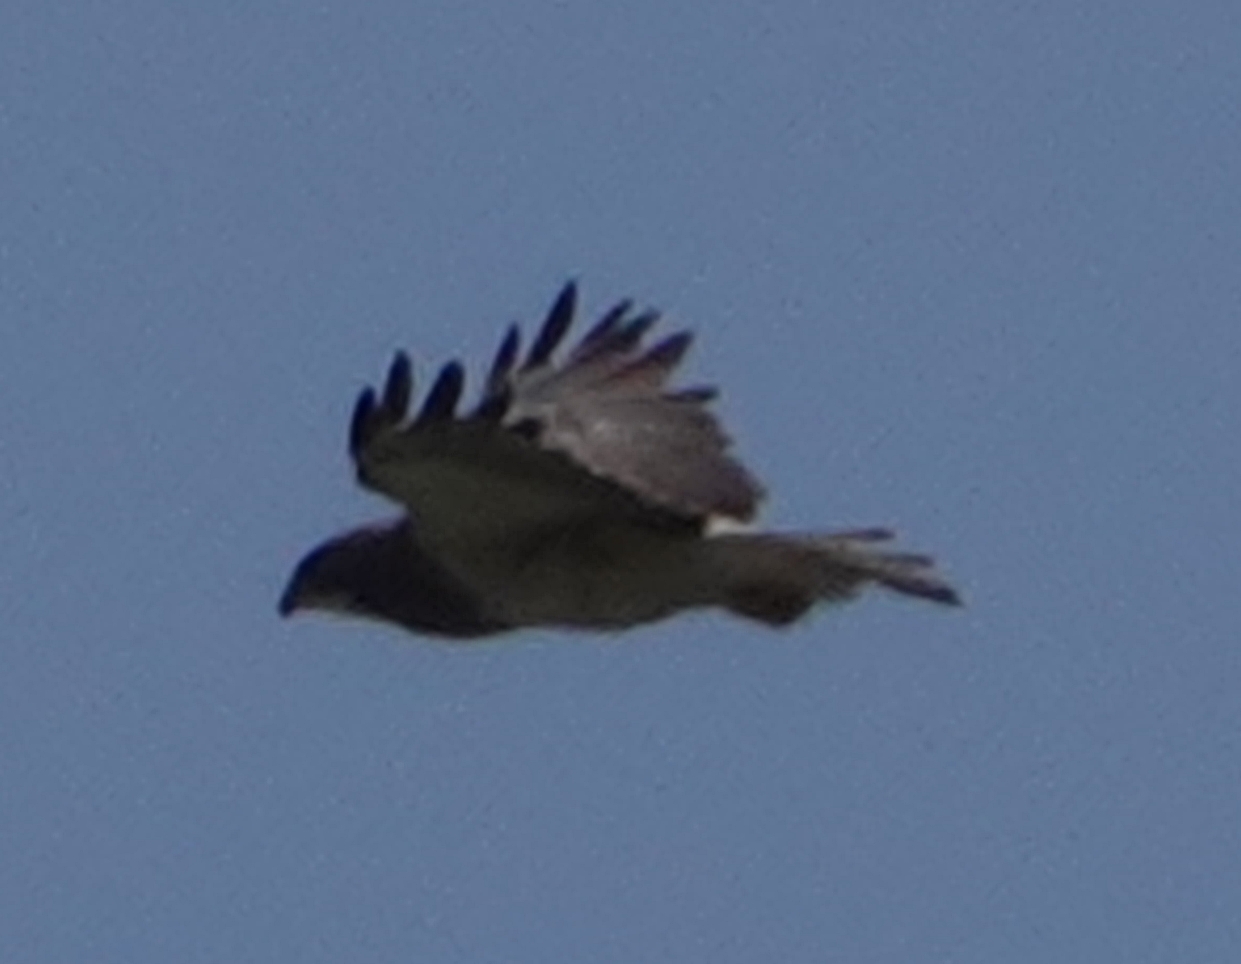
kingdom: Animalia
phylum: Chordata
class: Aves
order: Accipitriformes
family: Accipitridae
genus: Buteo
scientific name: Buteo swainsoni
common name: Swainson's hawk
